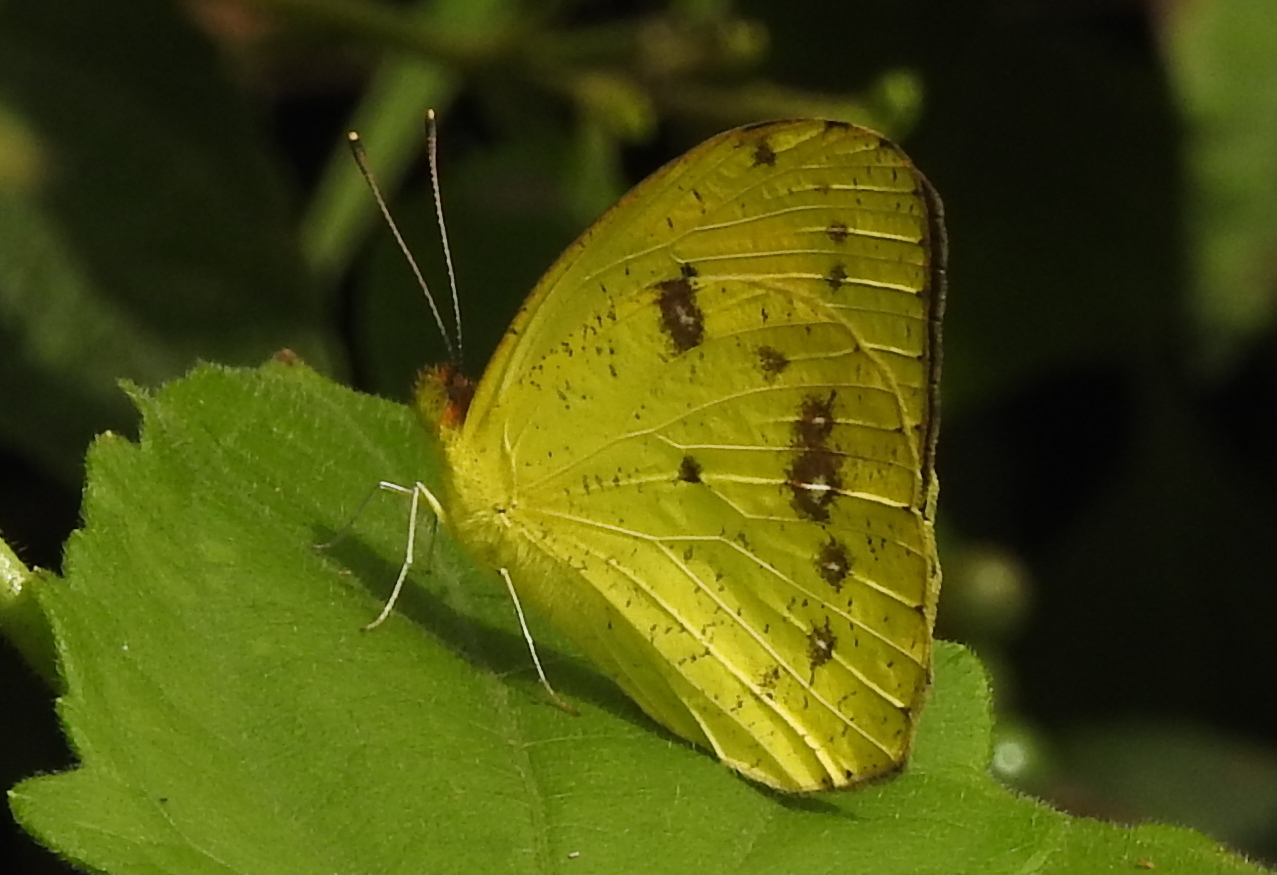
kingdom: Animalia
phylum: Arthropoda
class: Insecta
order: Lepidoptera
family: Pieridae
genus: Ixias
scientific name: Ixias pyrene
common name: Yellow orange tip
